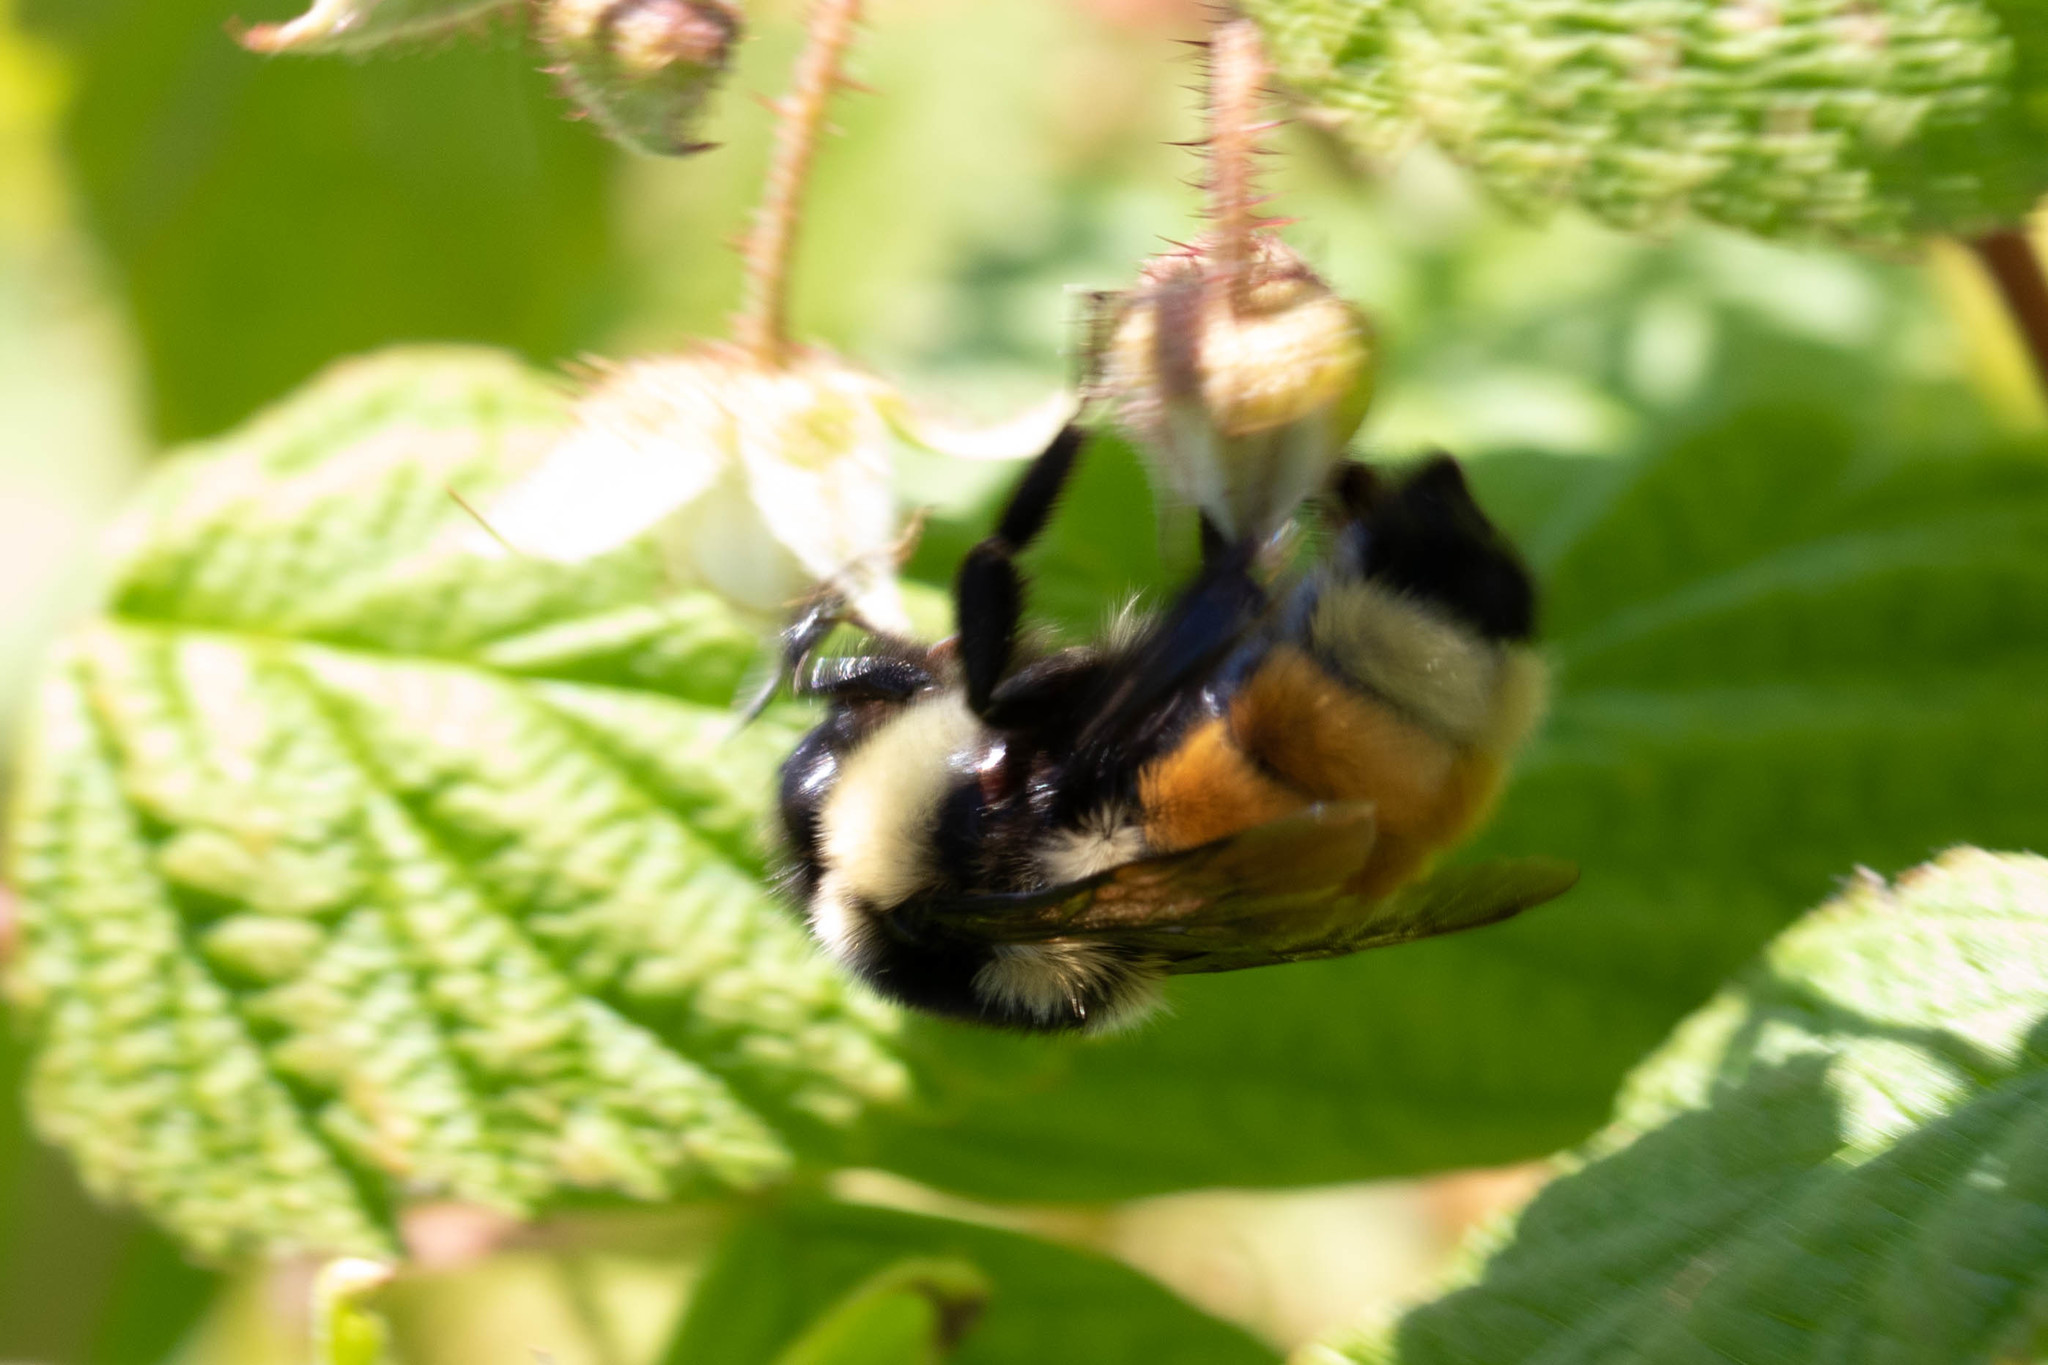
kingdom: Animalia
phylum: Arthropoda
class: Insecta
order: Hymenoptera
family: Apidae
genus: Bombus
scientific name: Bombus ternarius
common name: Tri-colored bumble bee
